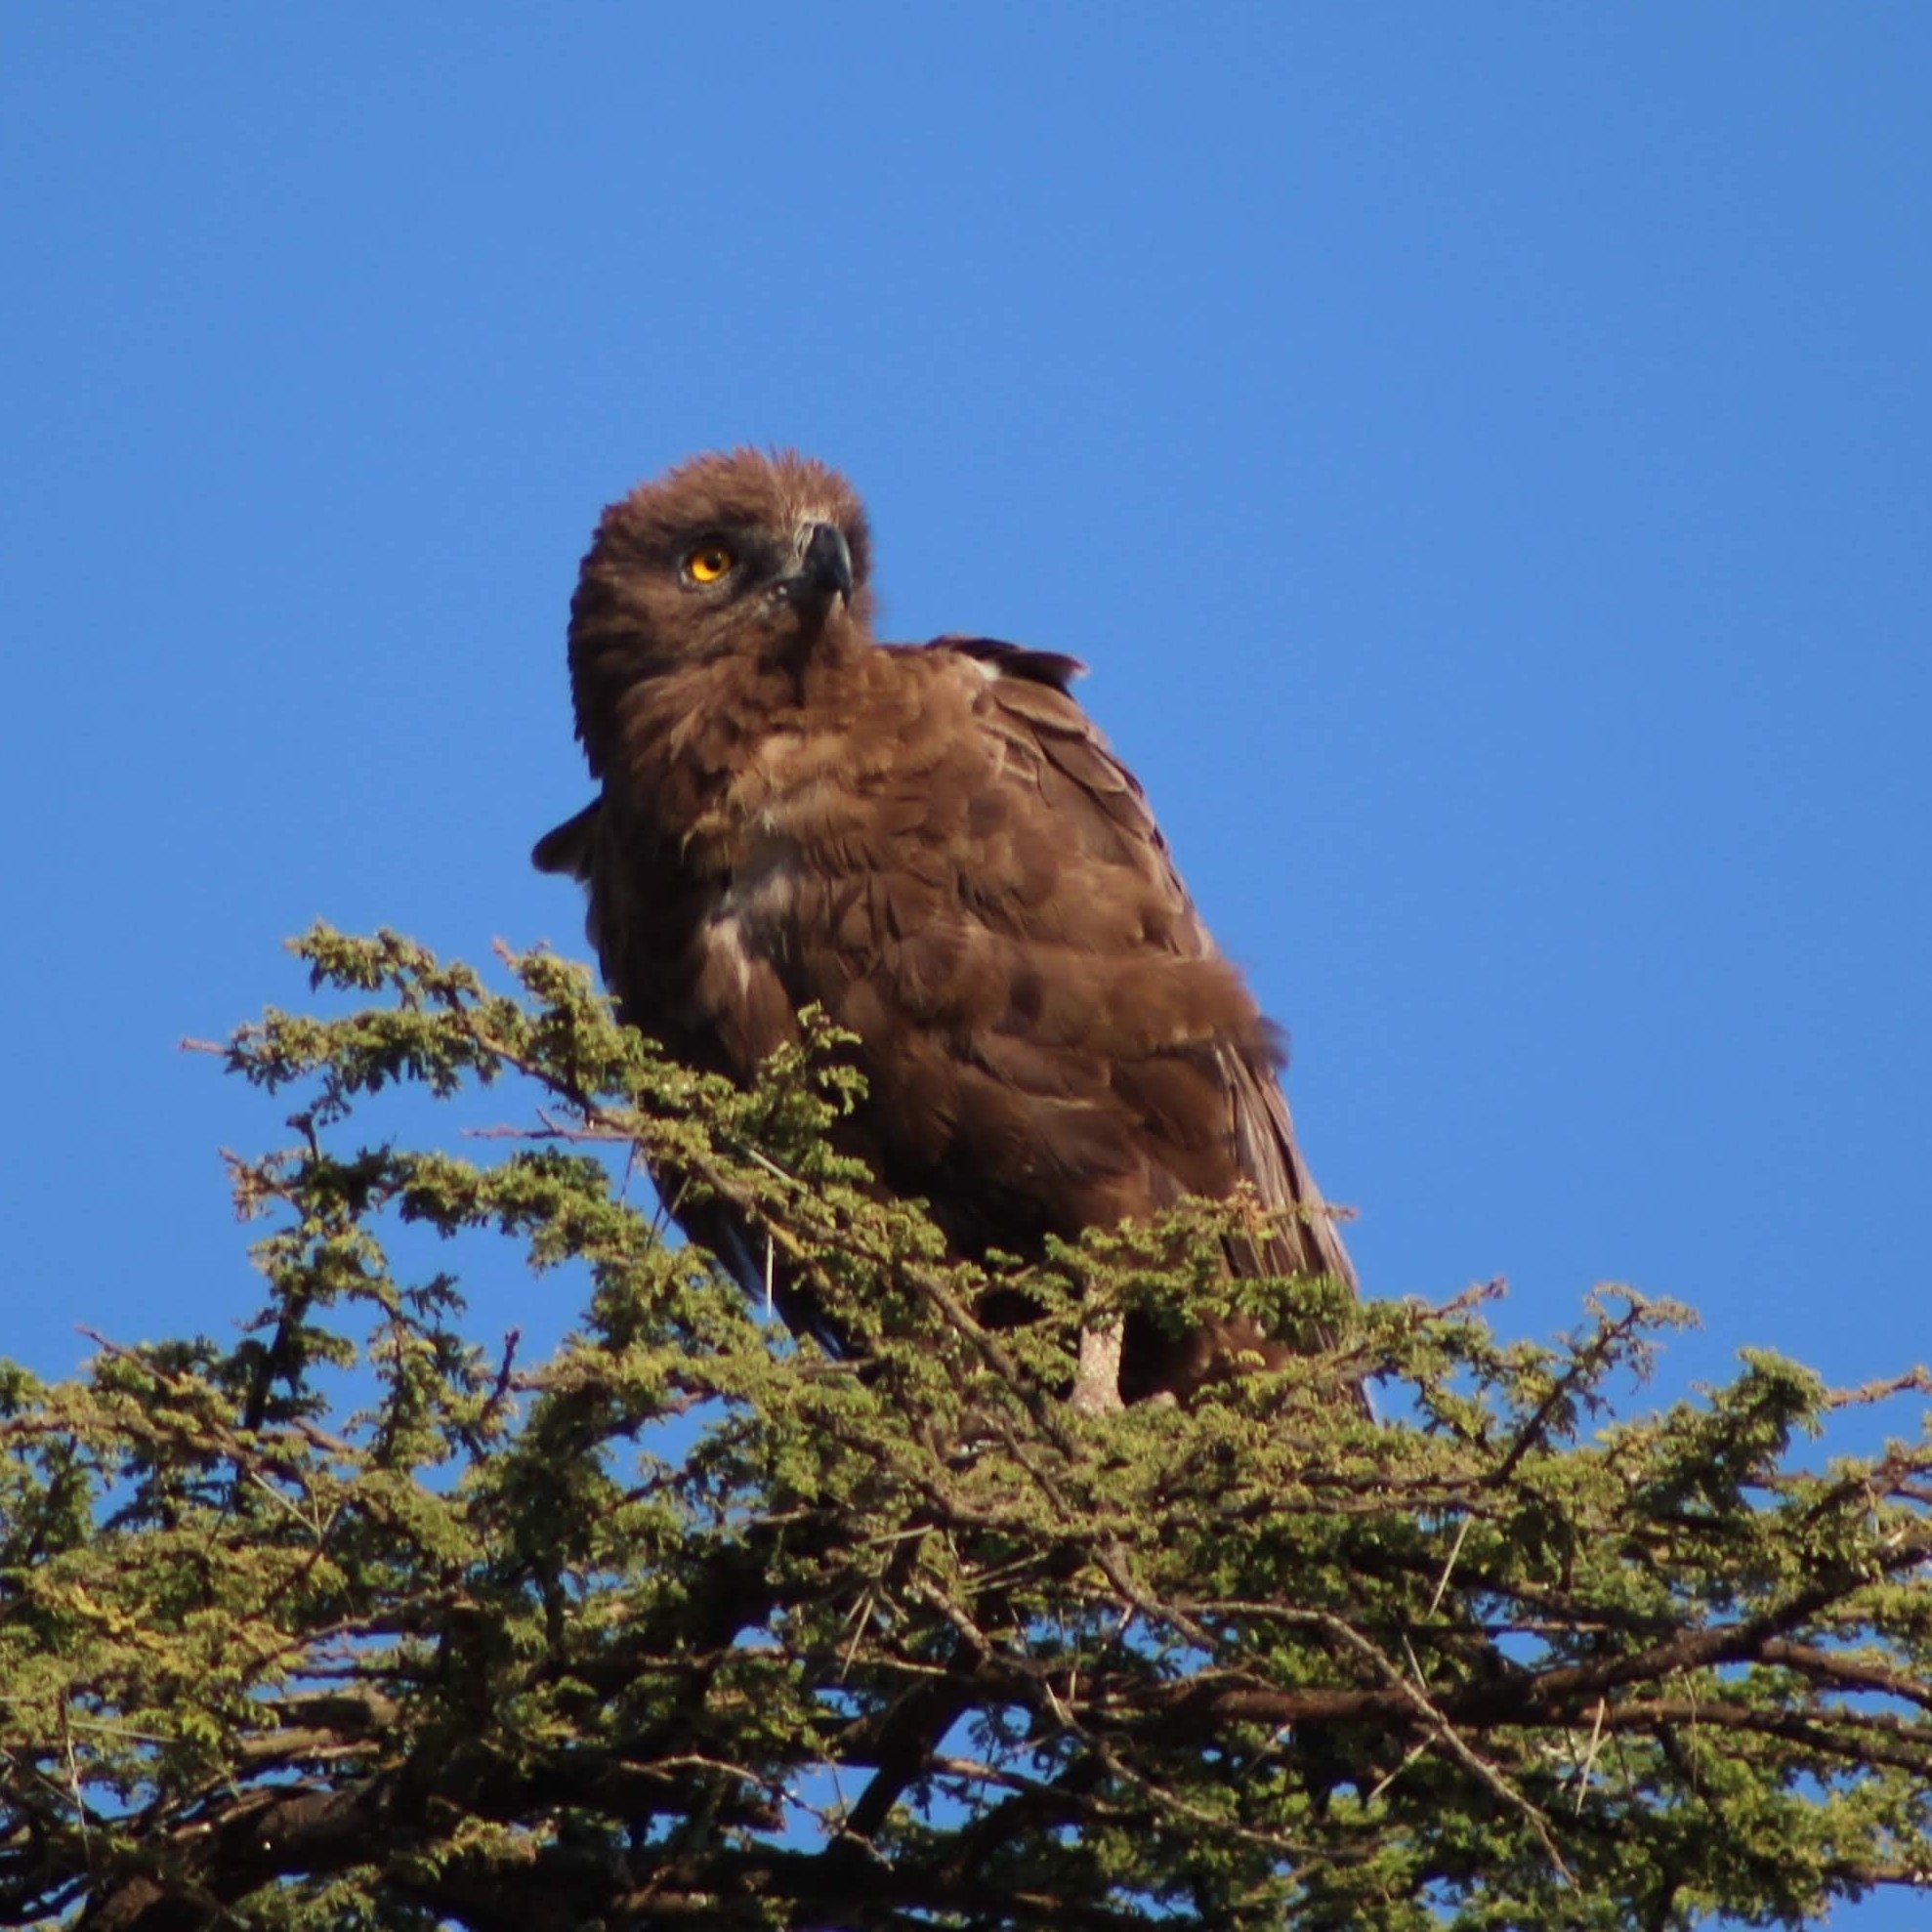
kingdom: Animalia
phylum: Chordata
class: Aves
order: Accipitriformes
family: Accipitridae
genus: Circaetus
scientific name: Circaetus cinereus
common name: Brown snake eagle
